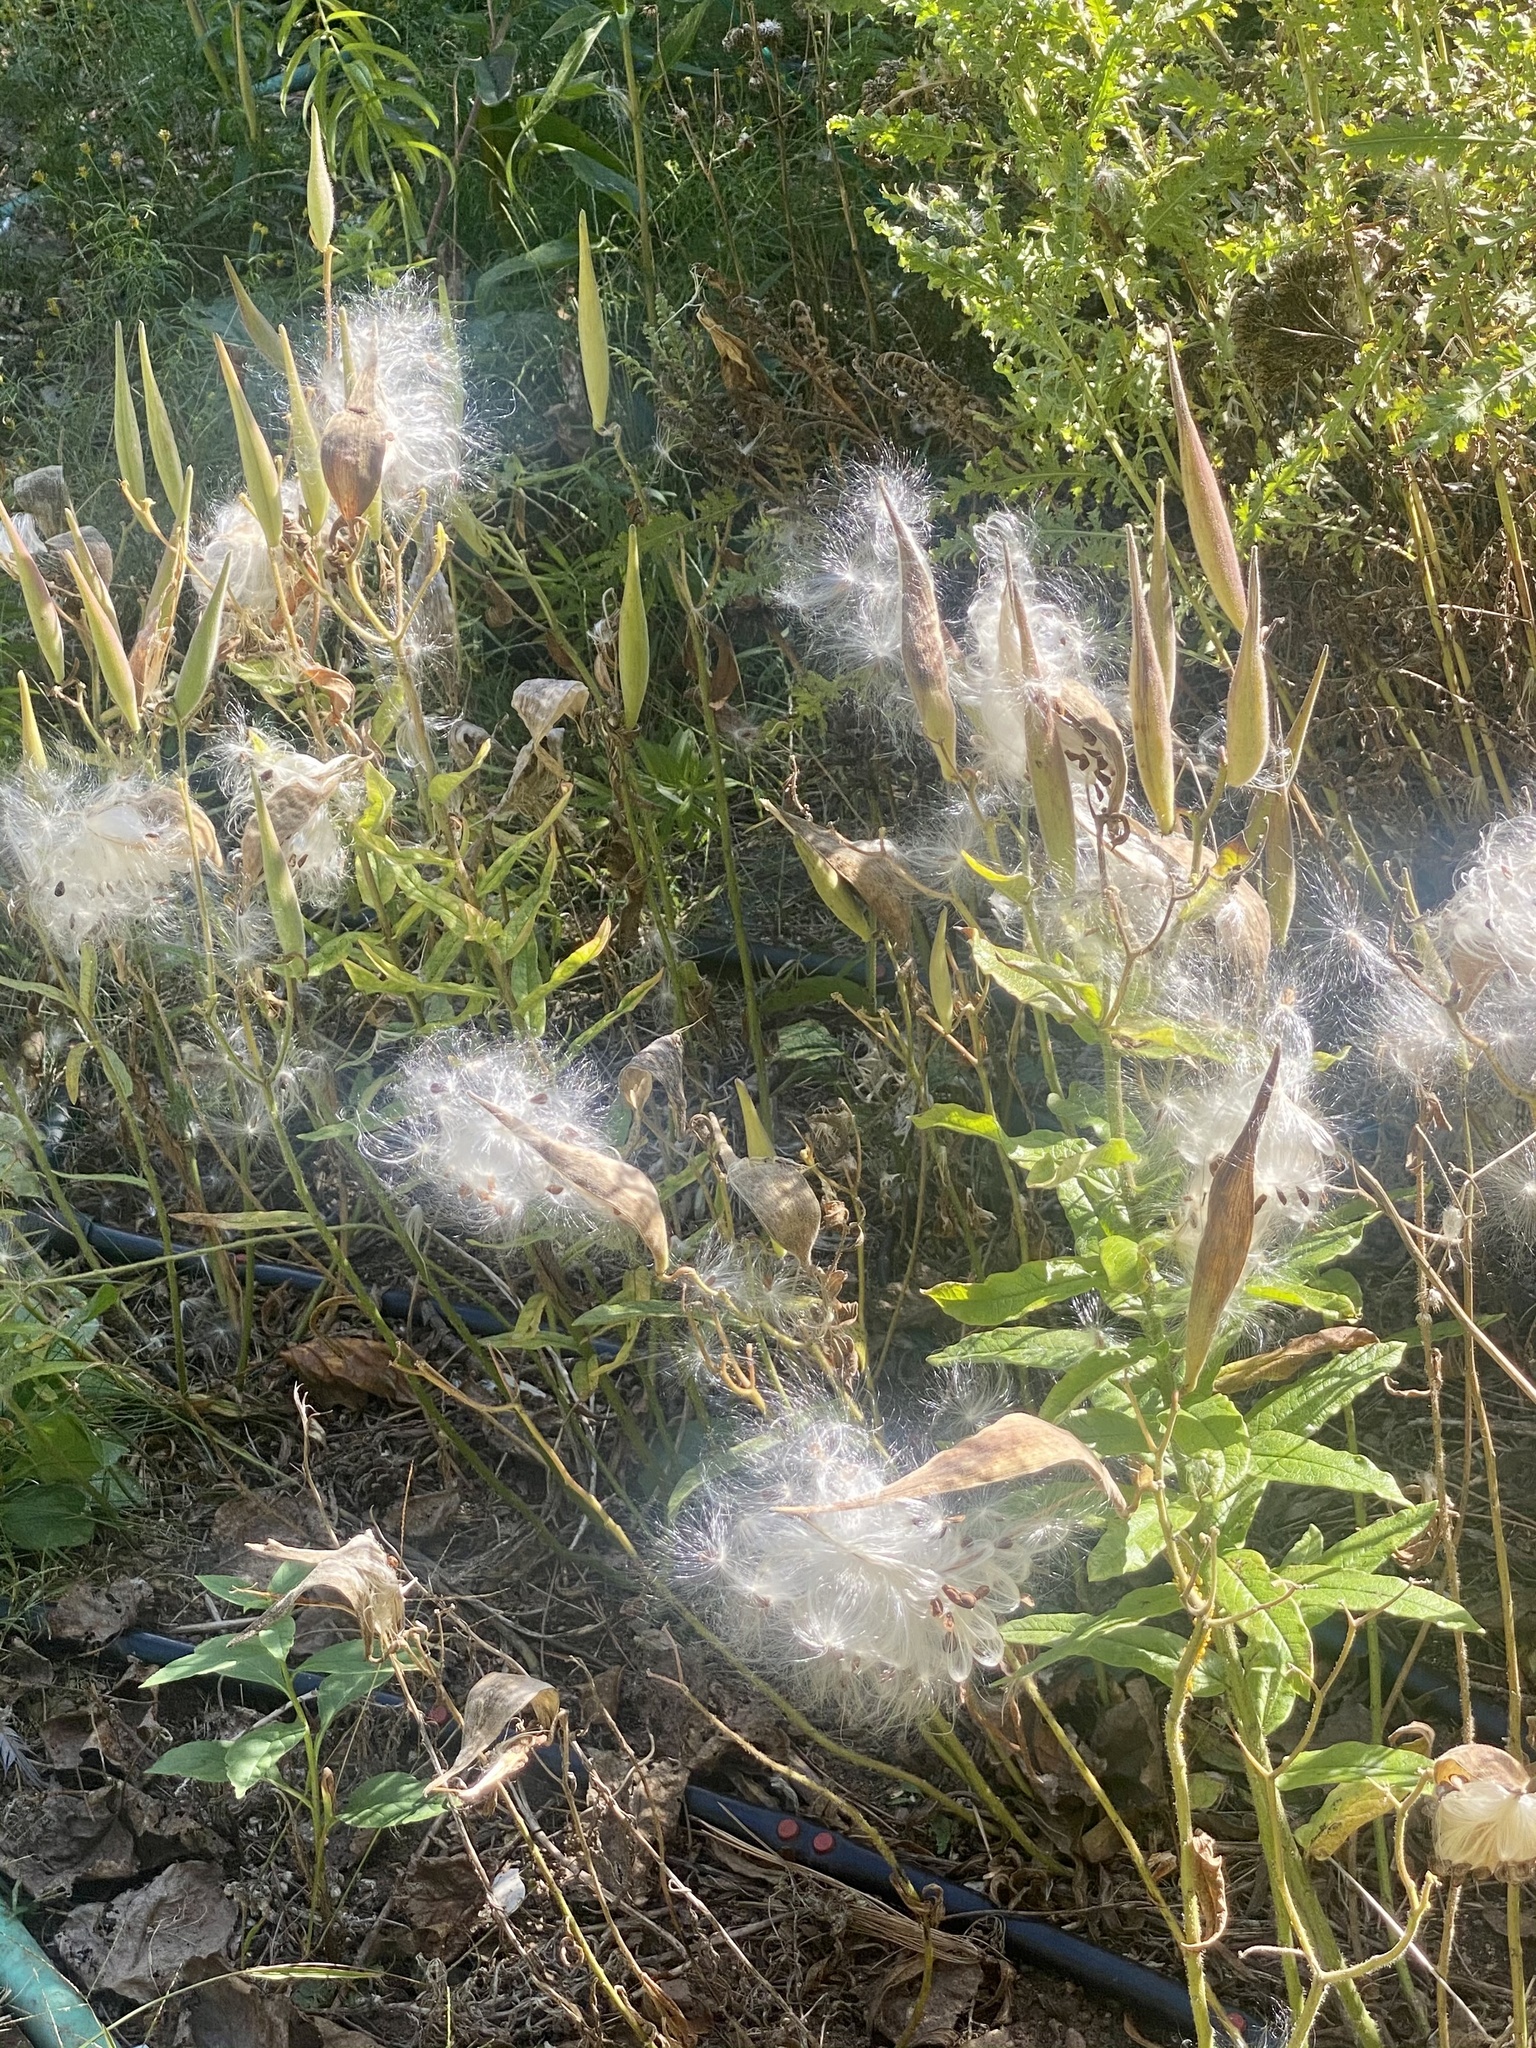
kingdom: Plantae
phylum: Tracheophyta
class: Magnoliopsida
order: Gentianales
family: Apocynaceae
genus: Asclepias
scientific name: Asclepias tuberosa
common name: Butterfly milkweed
